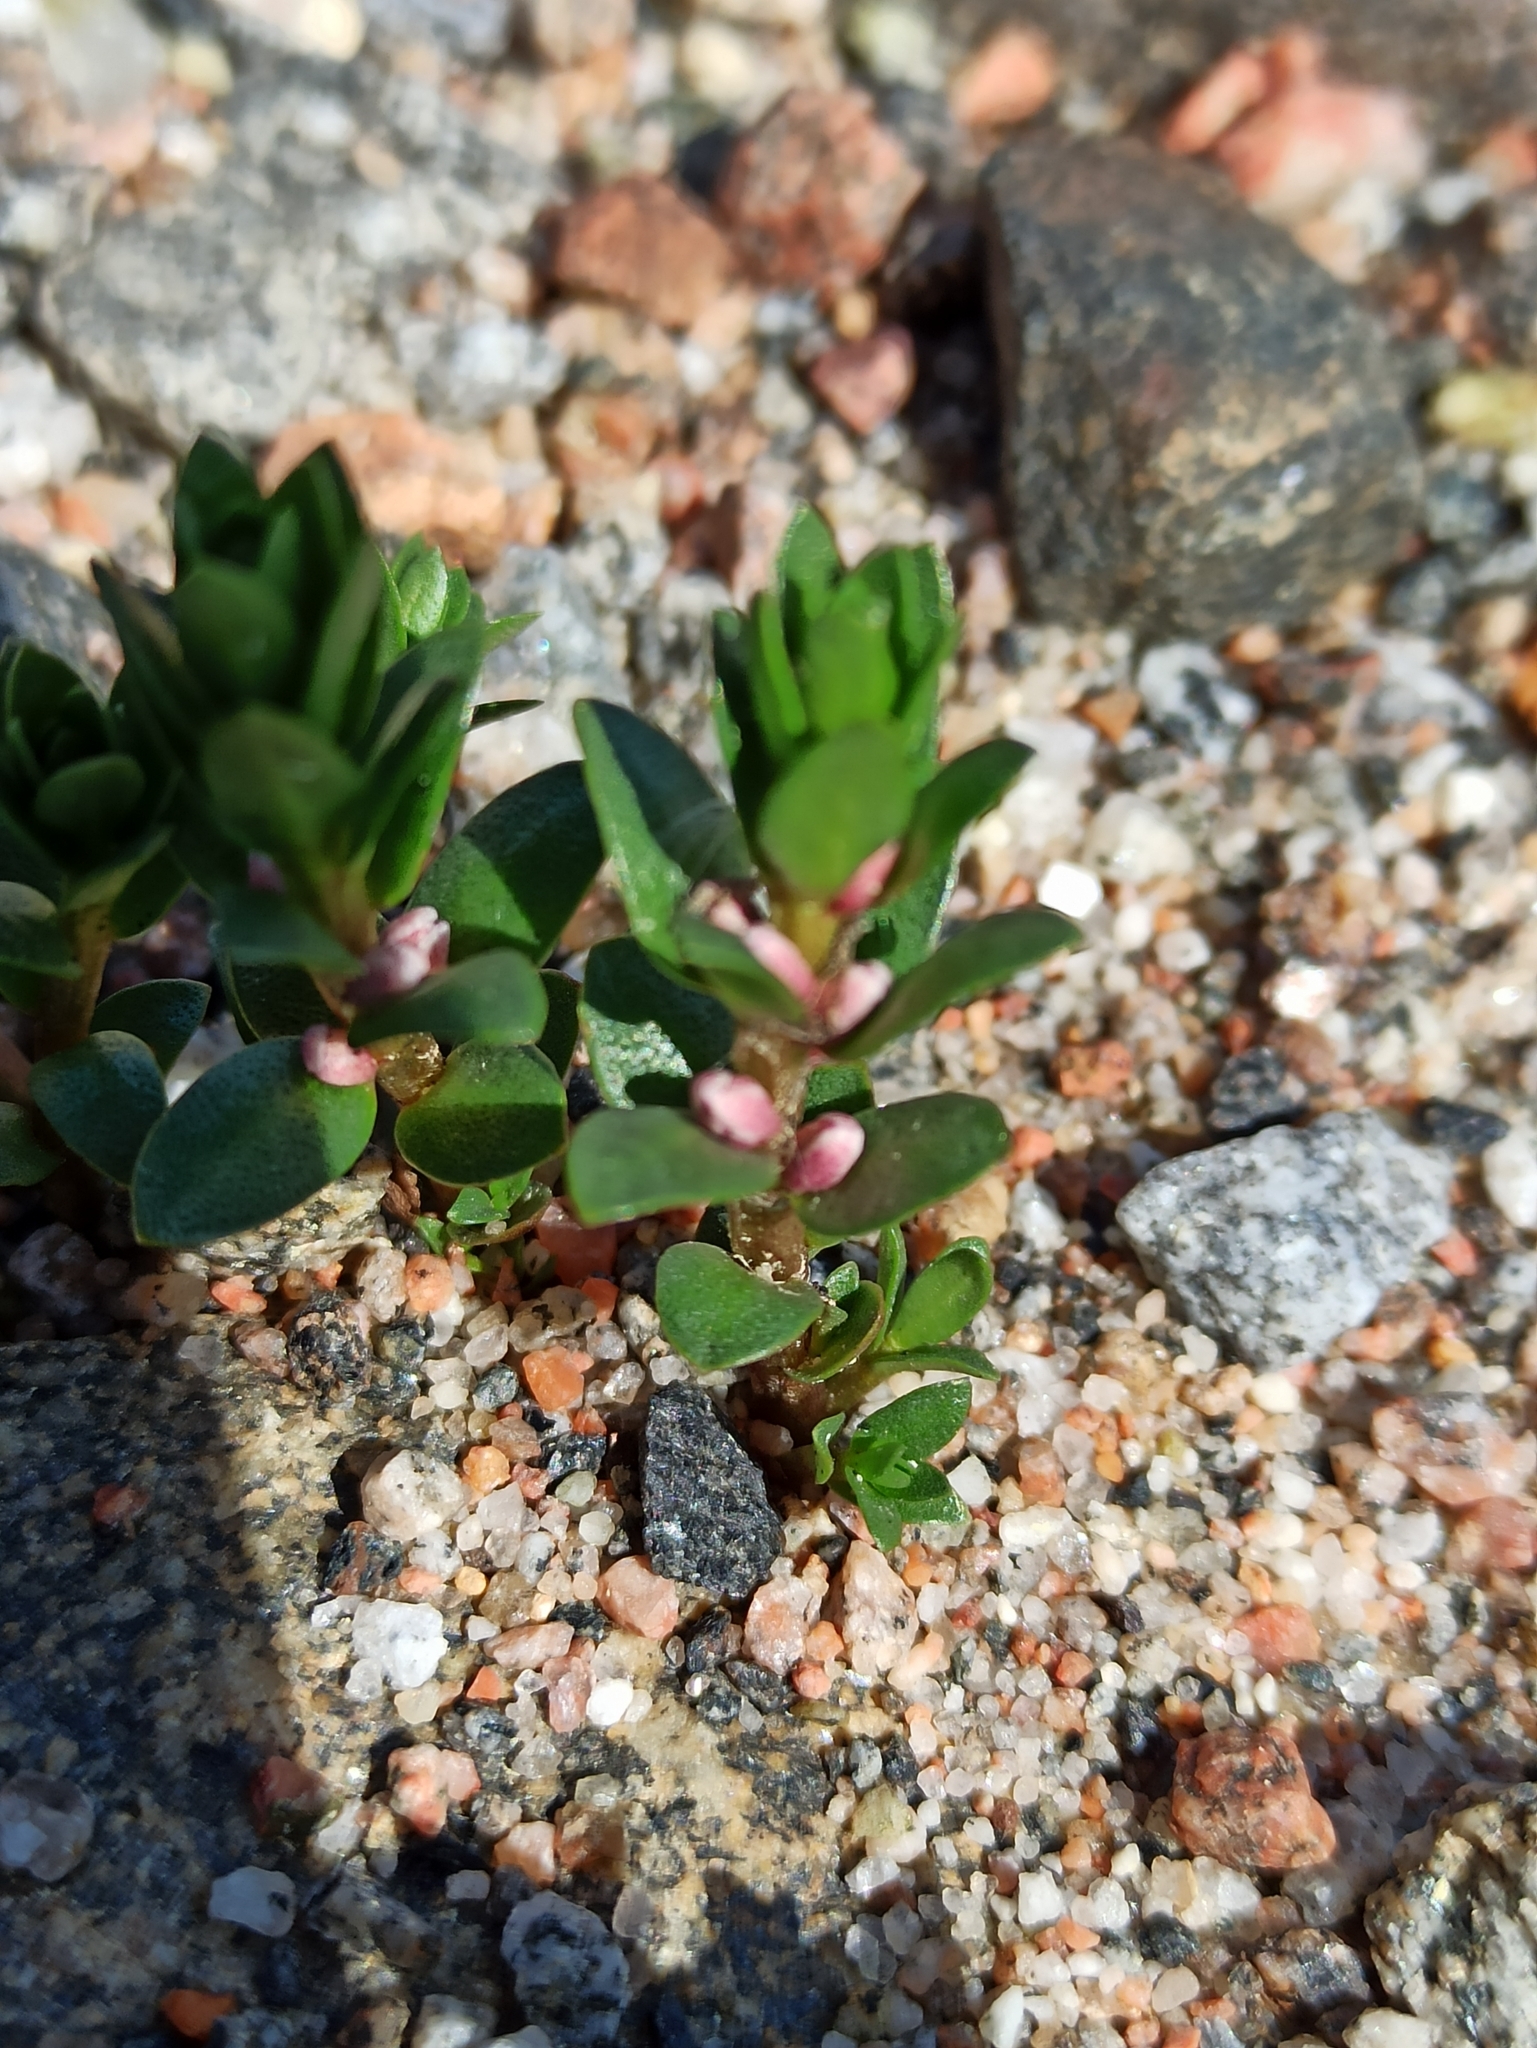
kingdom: Plantae
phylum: Tracheophyta
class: Magnoliopsida
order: Ericales
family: Primulaceae
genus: Lysimachia
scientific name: Lysimachia maritima
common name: Sea milkwort
